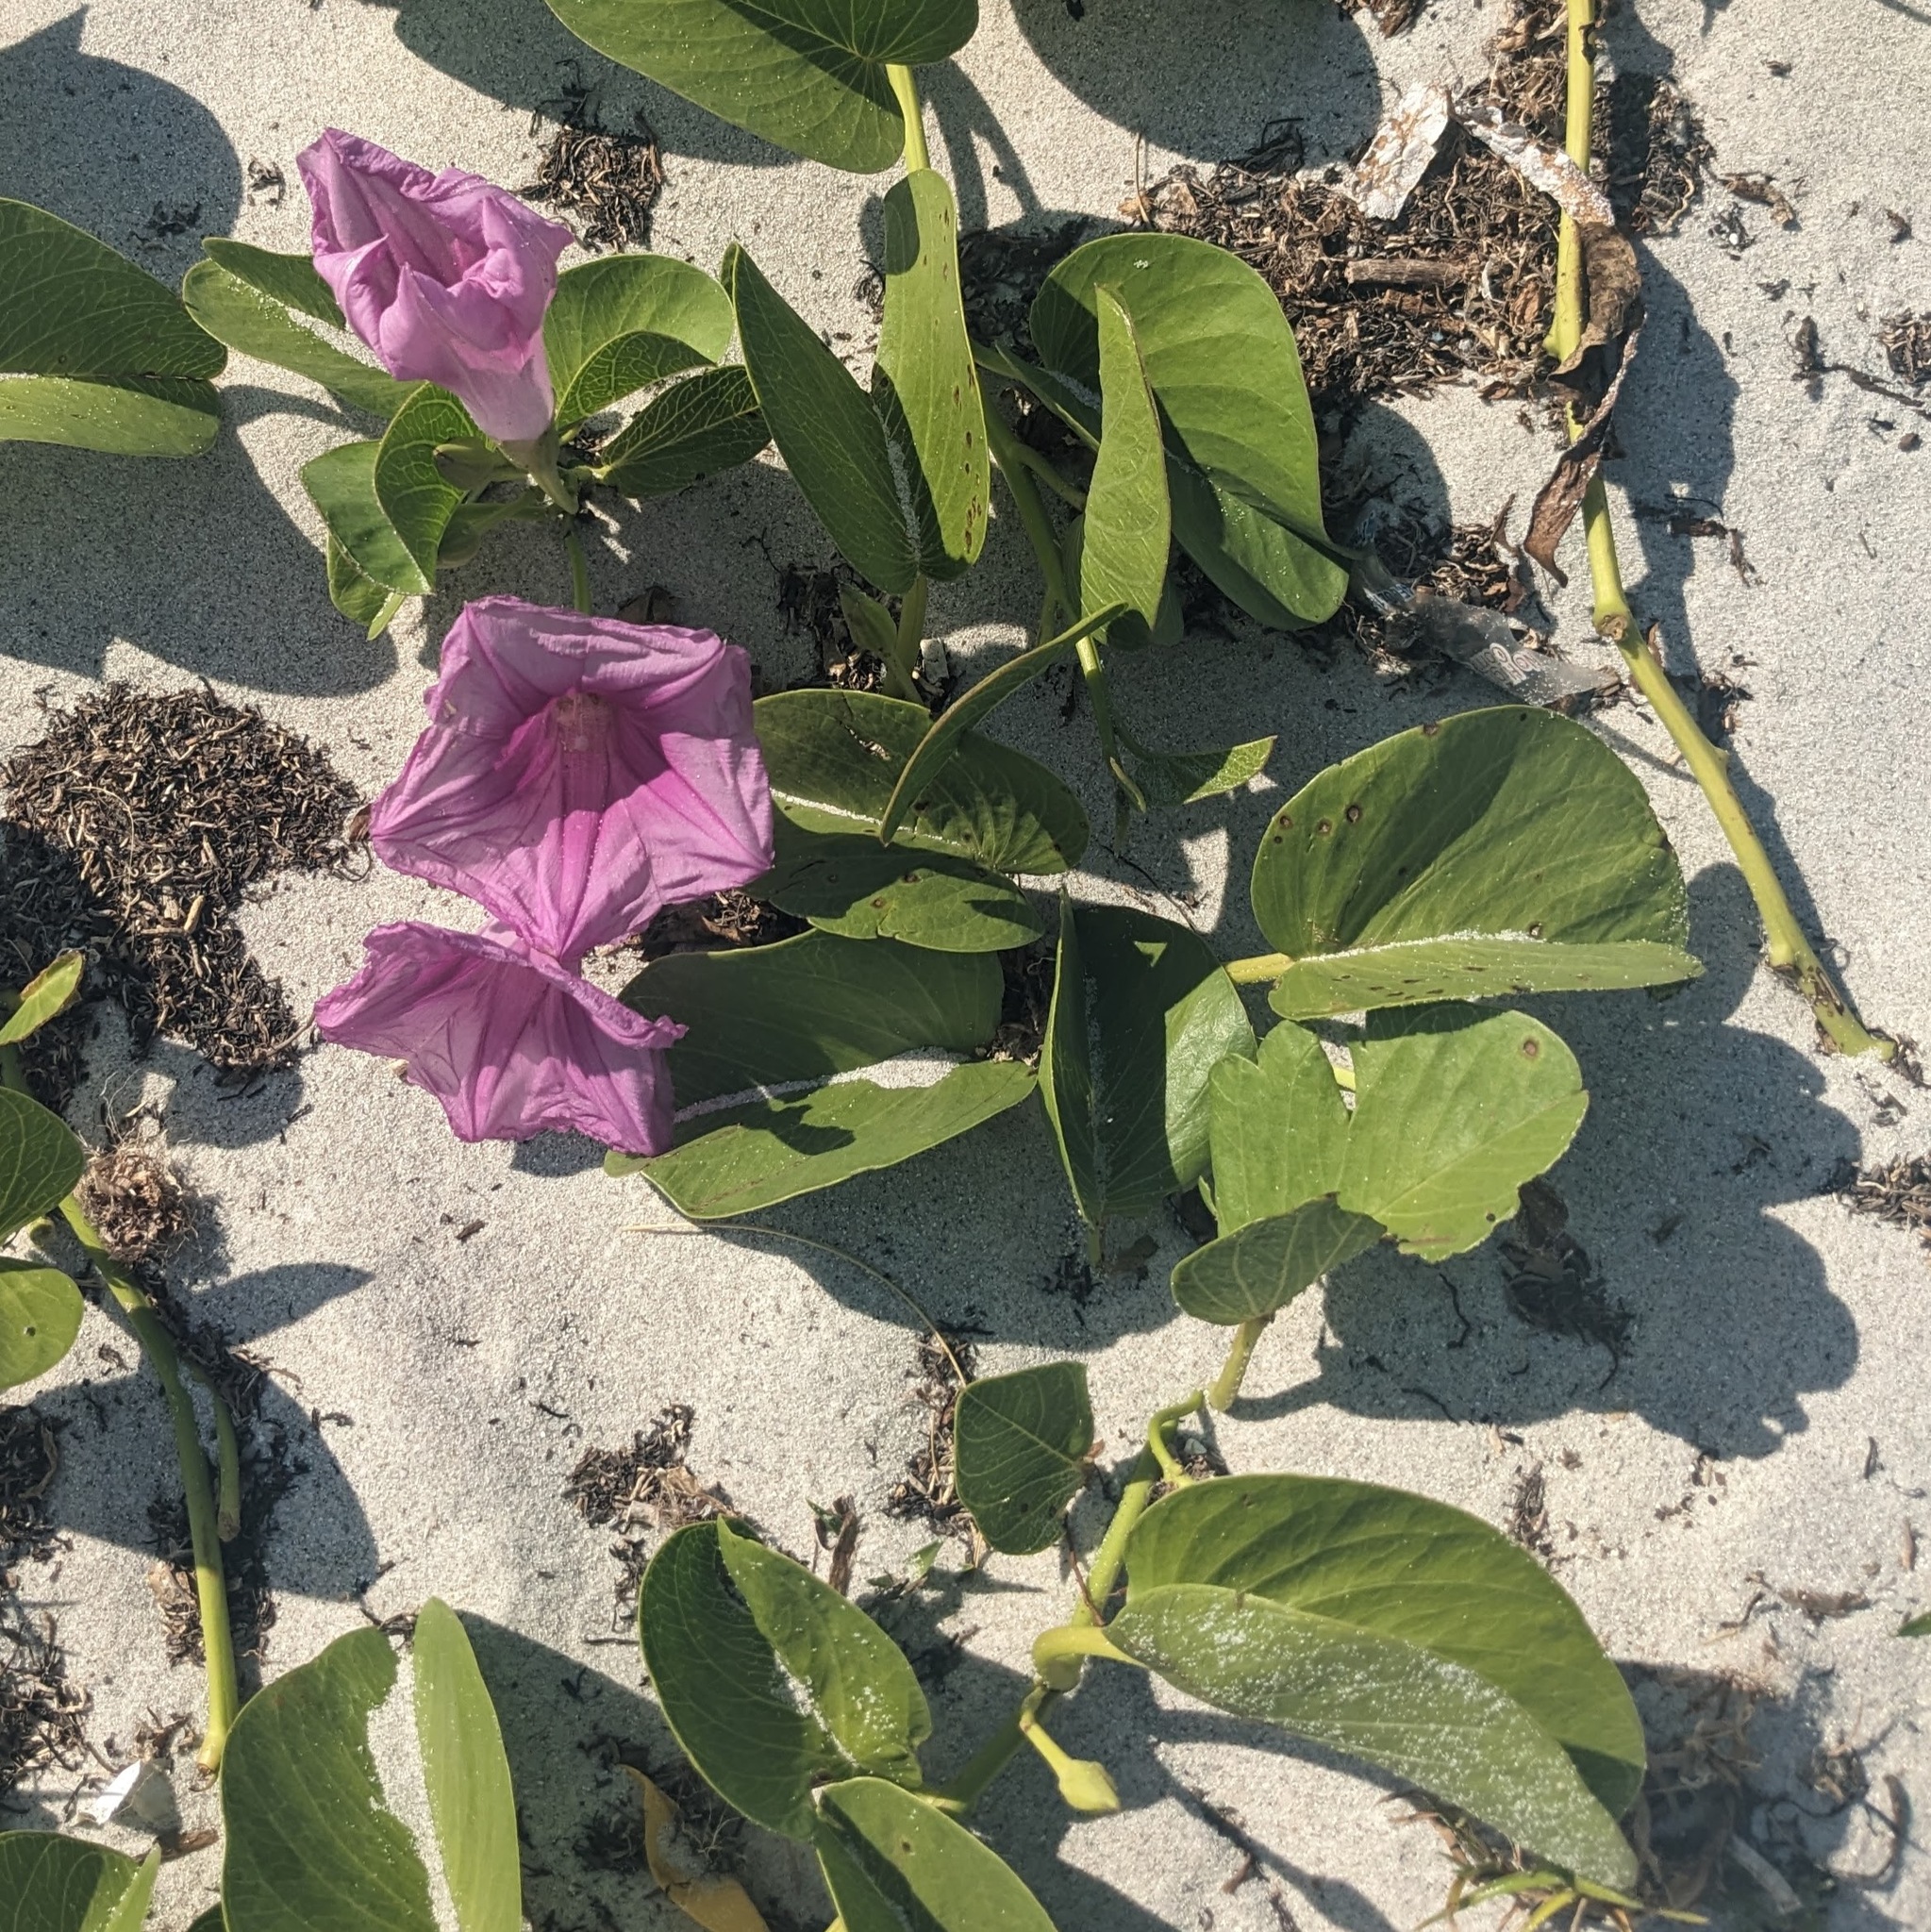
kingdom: Plantae
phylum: Tracheophyta
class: Magnoliopsida
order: Solanales
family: Convolvulaceae
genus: Ipomoea
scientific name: Ipomoea pes-caprae
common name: Beach morning glory
